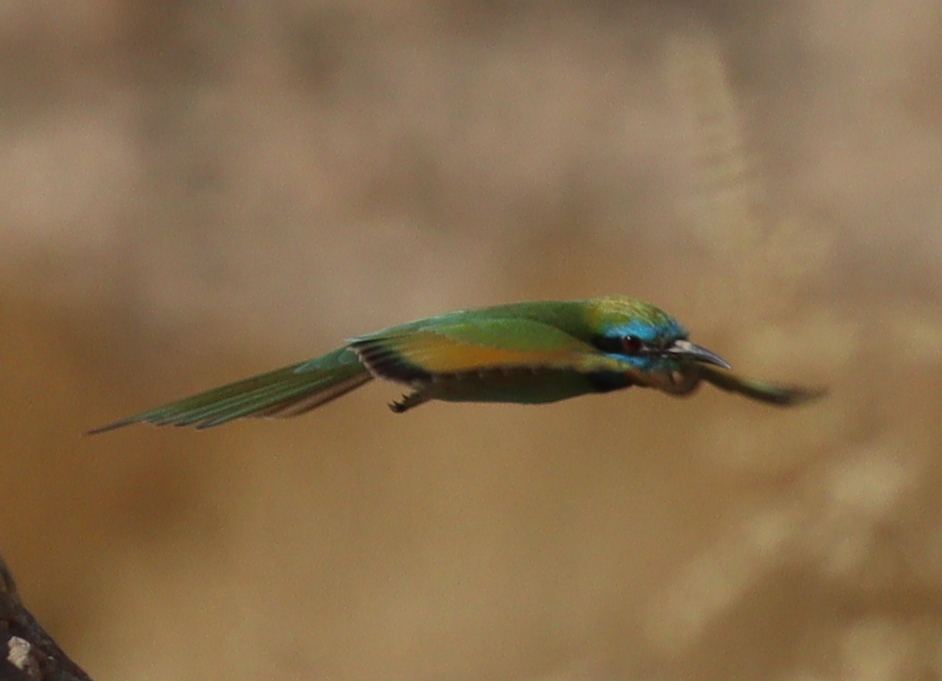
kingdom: Animalia
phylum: Chordata
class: Aves
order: Coraciiformes
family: Meropidae
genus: Merops
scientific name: Merops cyanophrys
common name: Arabian green bee-eater
